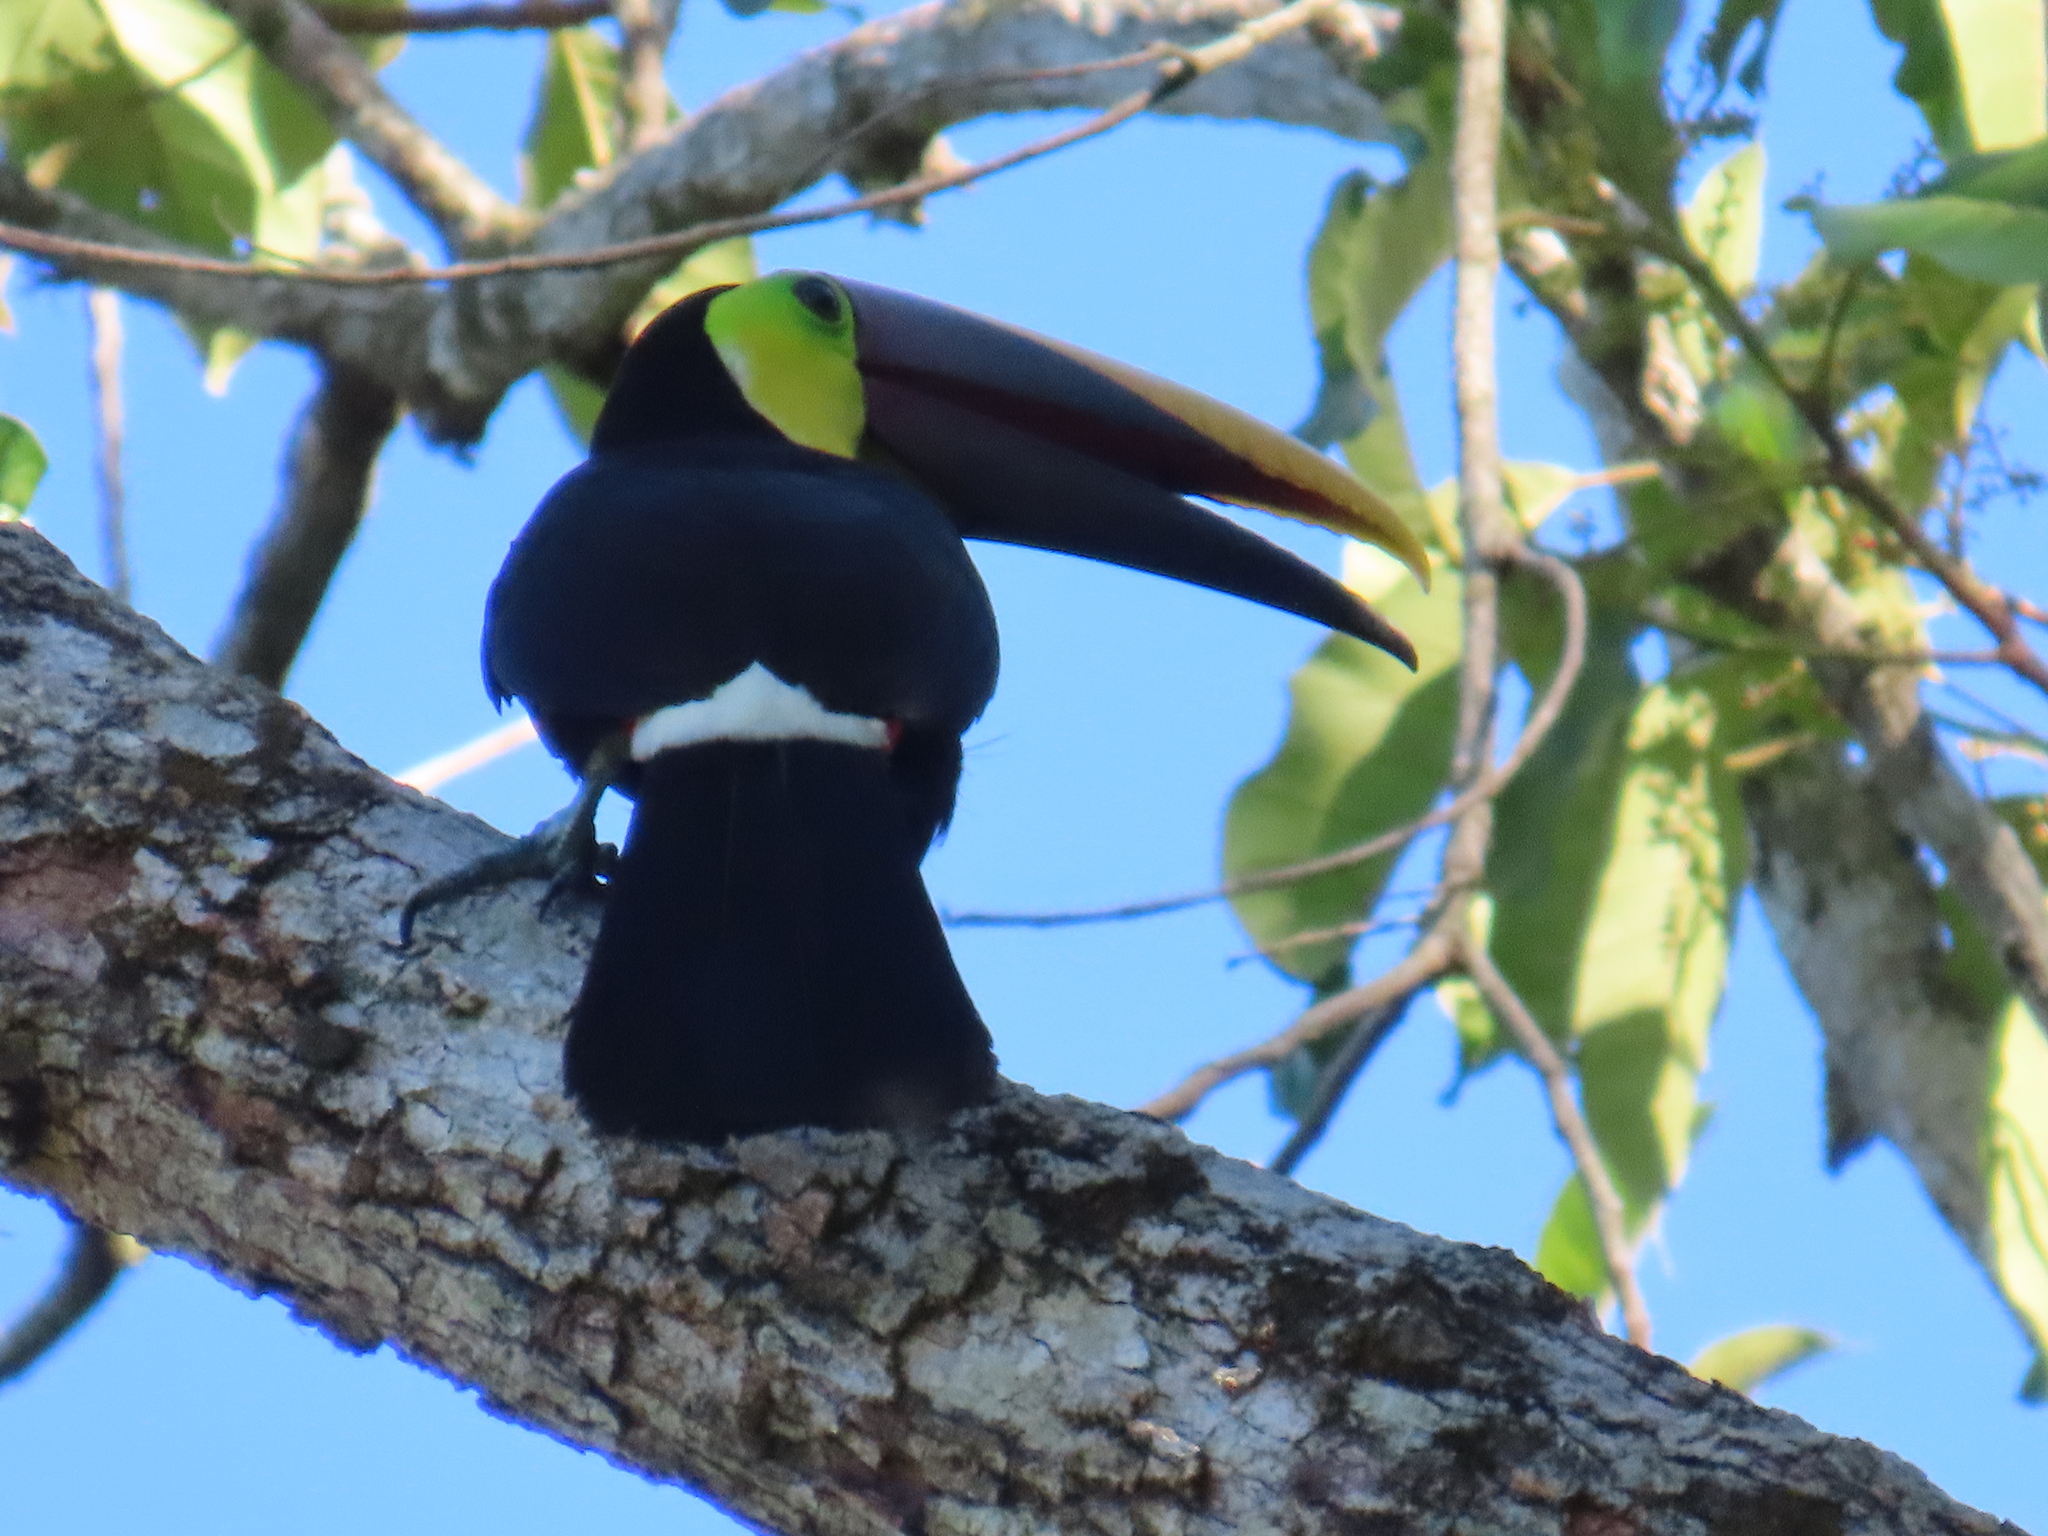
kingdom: Animalia
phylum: Chordata
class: Aves
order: Piciformes
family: Ramphastidae
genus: Ramphastos
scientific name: Ramphastos ambiguus
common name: Yellow-throated toucan
